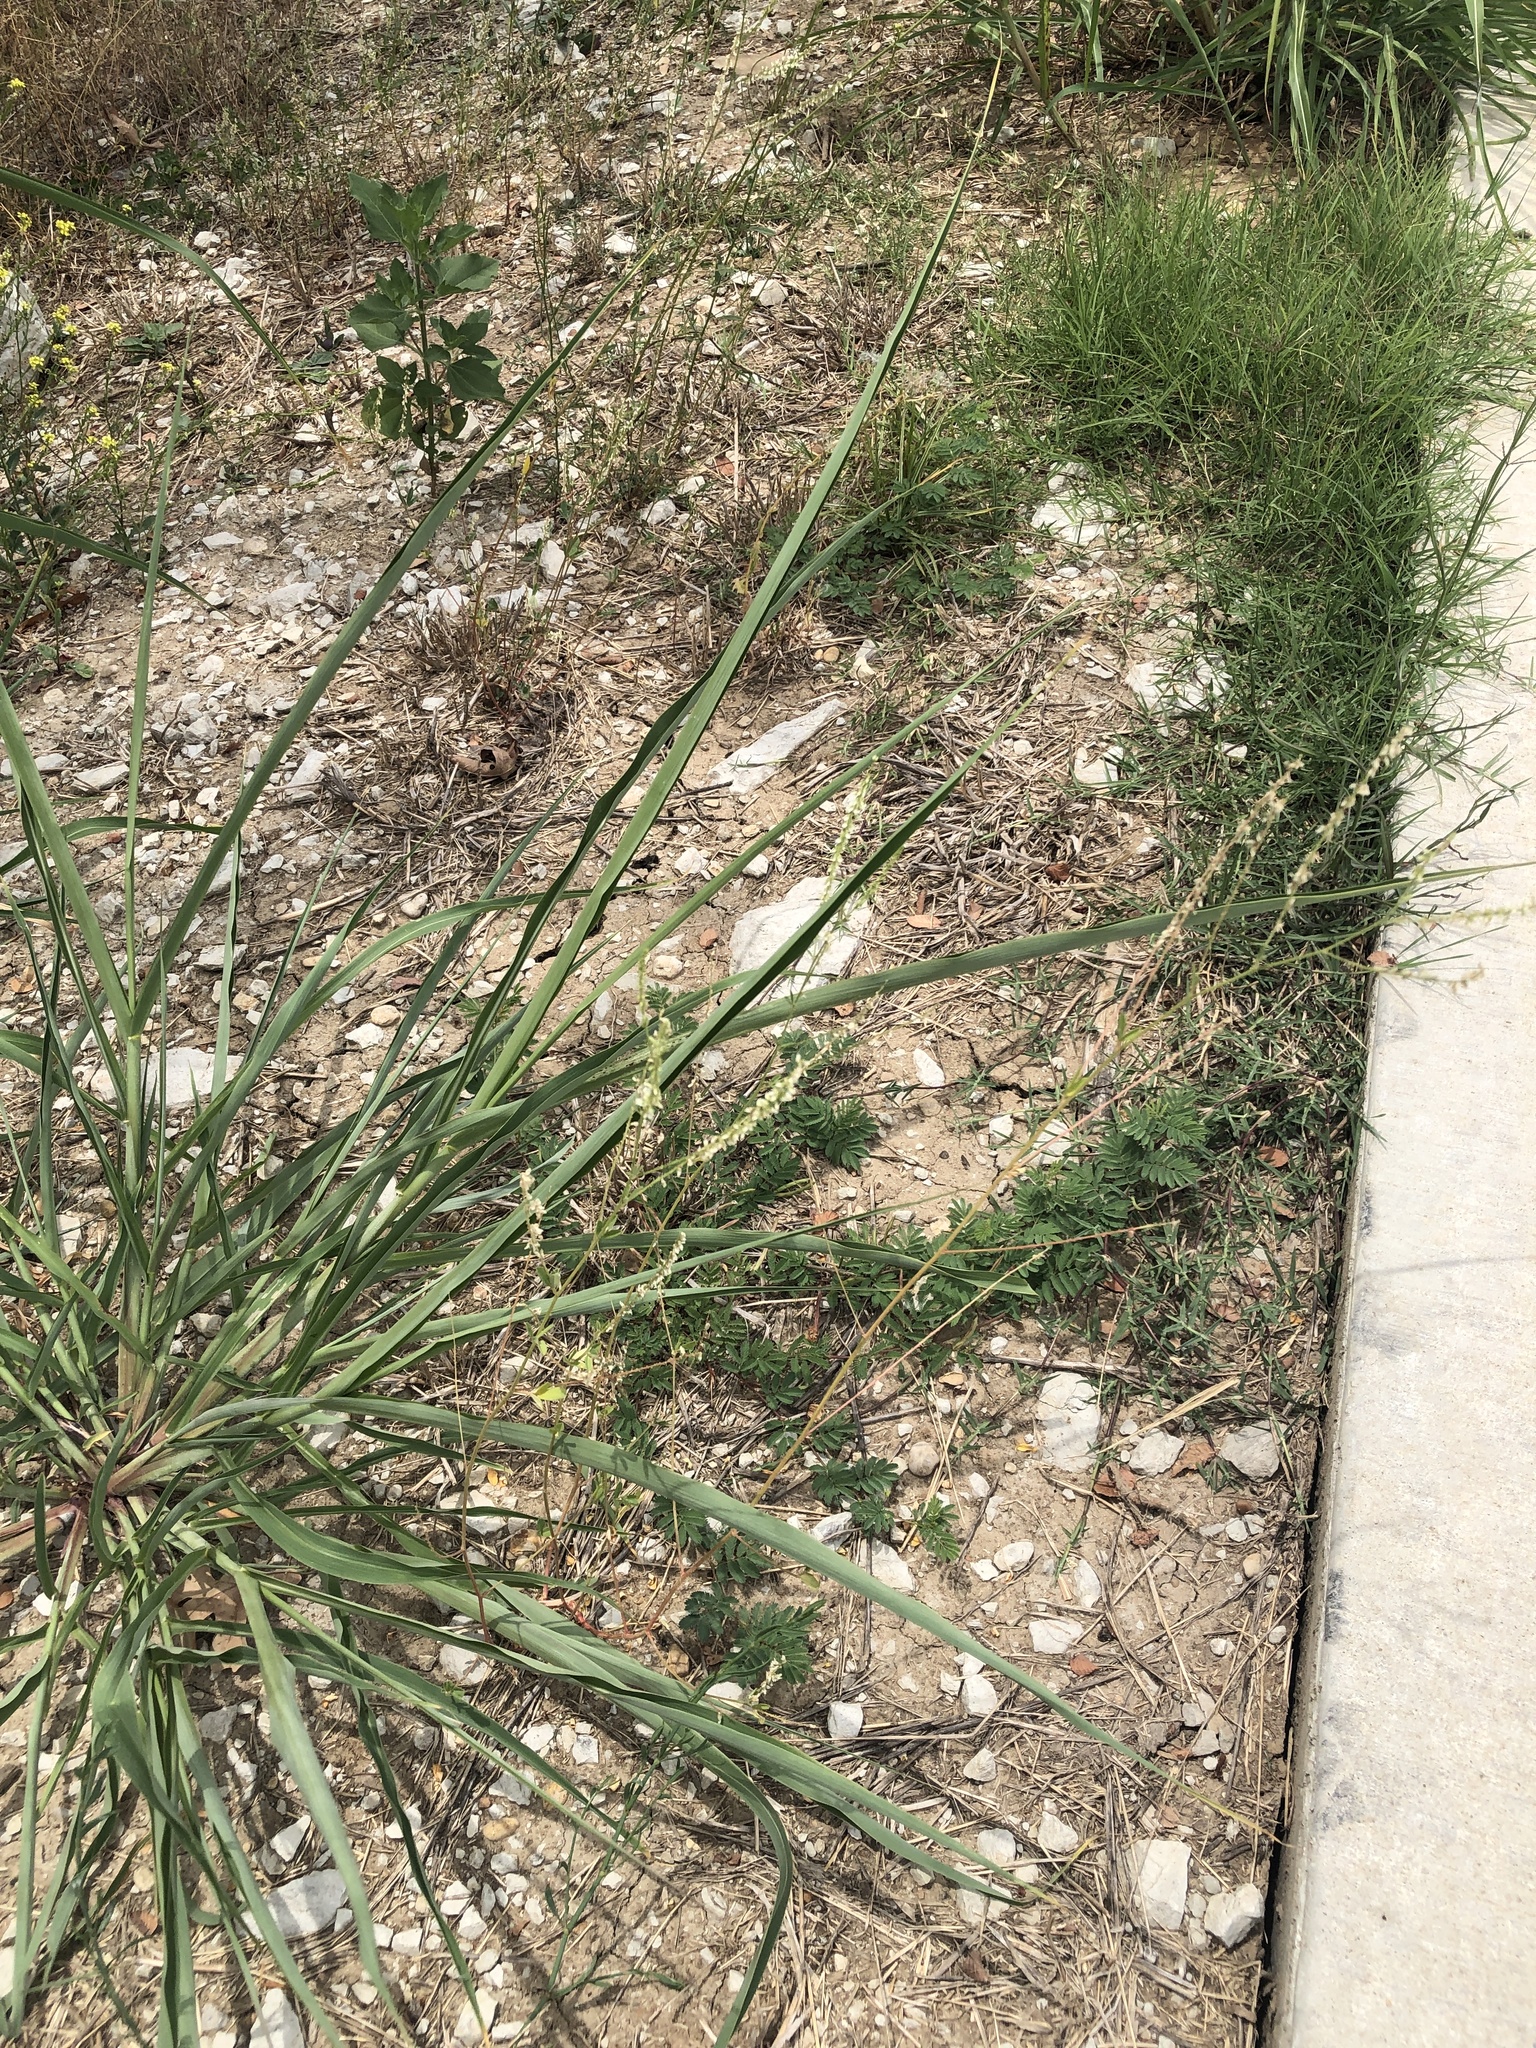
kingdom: Plantae
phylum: Tracheophyta
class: Magnoliopsida
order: Fabales
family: Fabaceae
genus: Melilotus
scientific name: Melilotus albus
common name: White melilot
